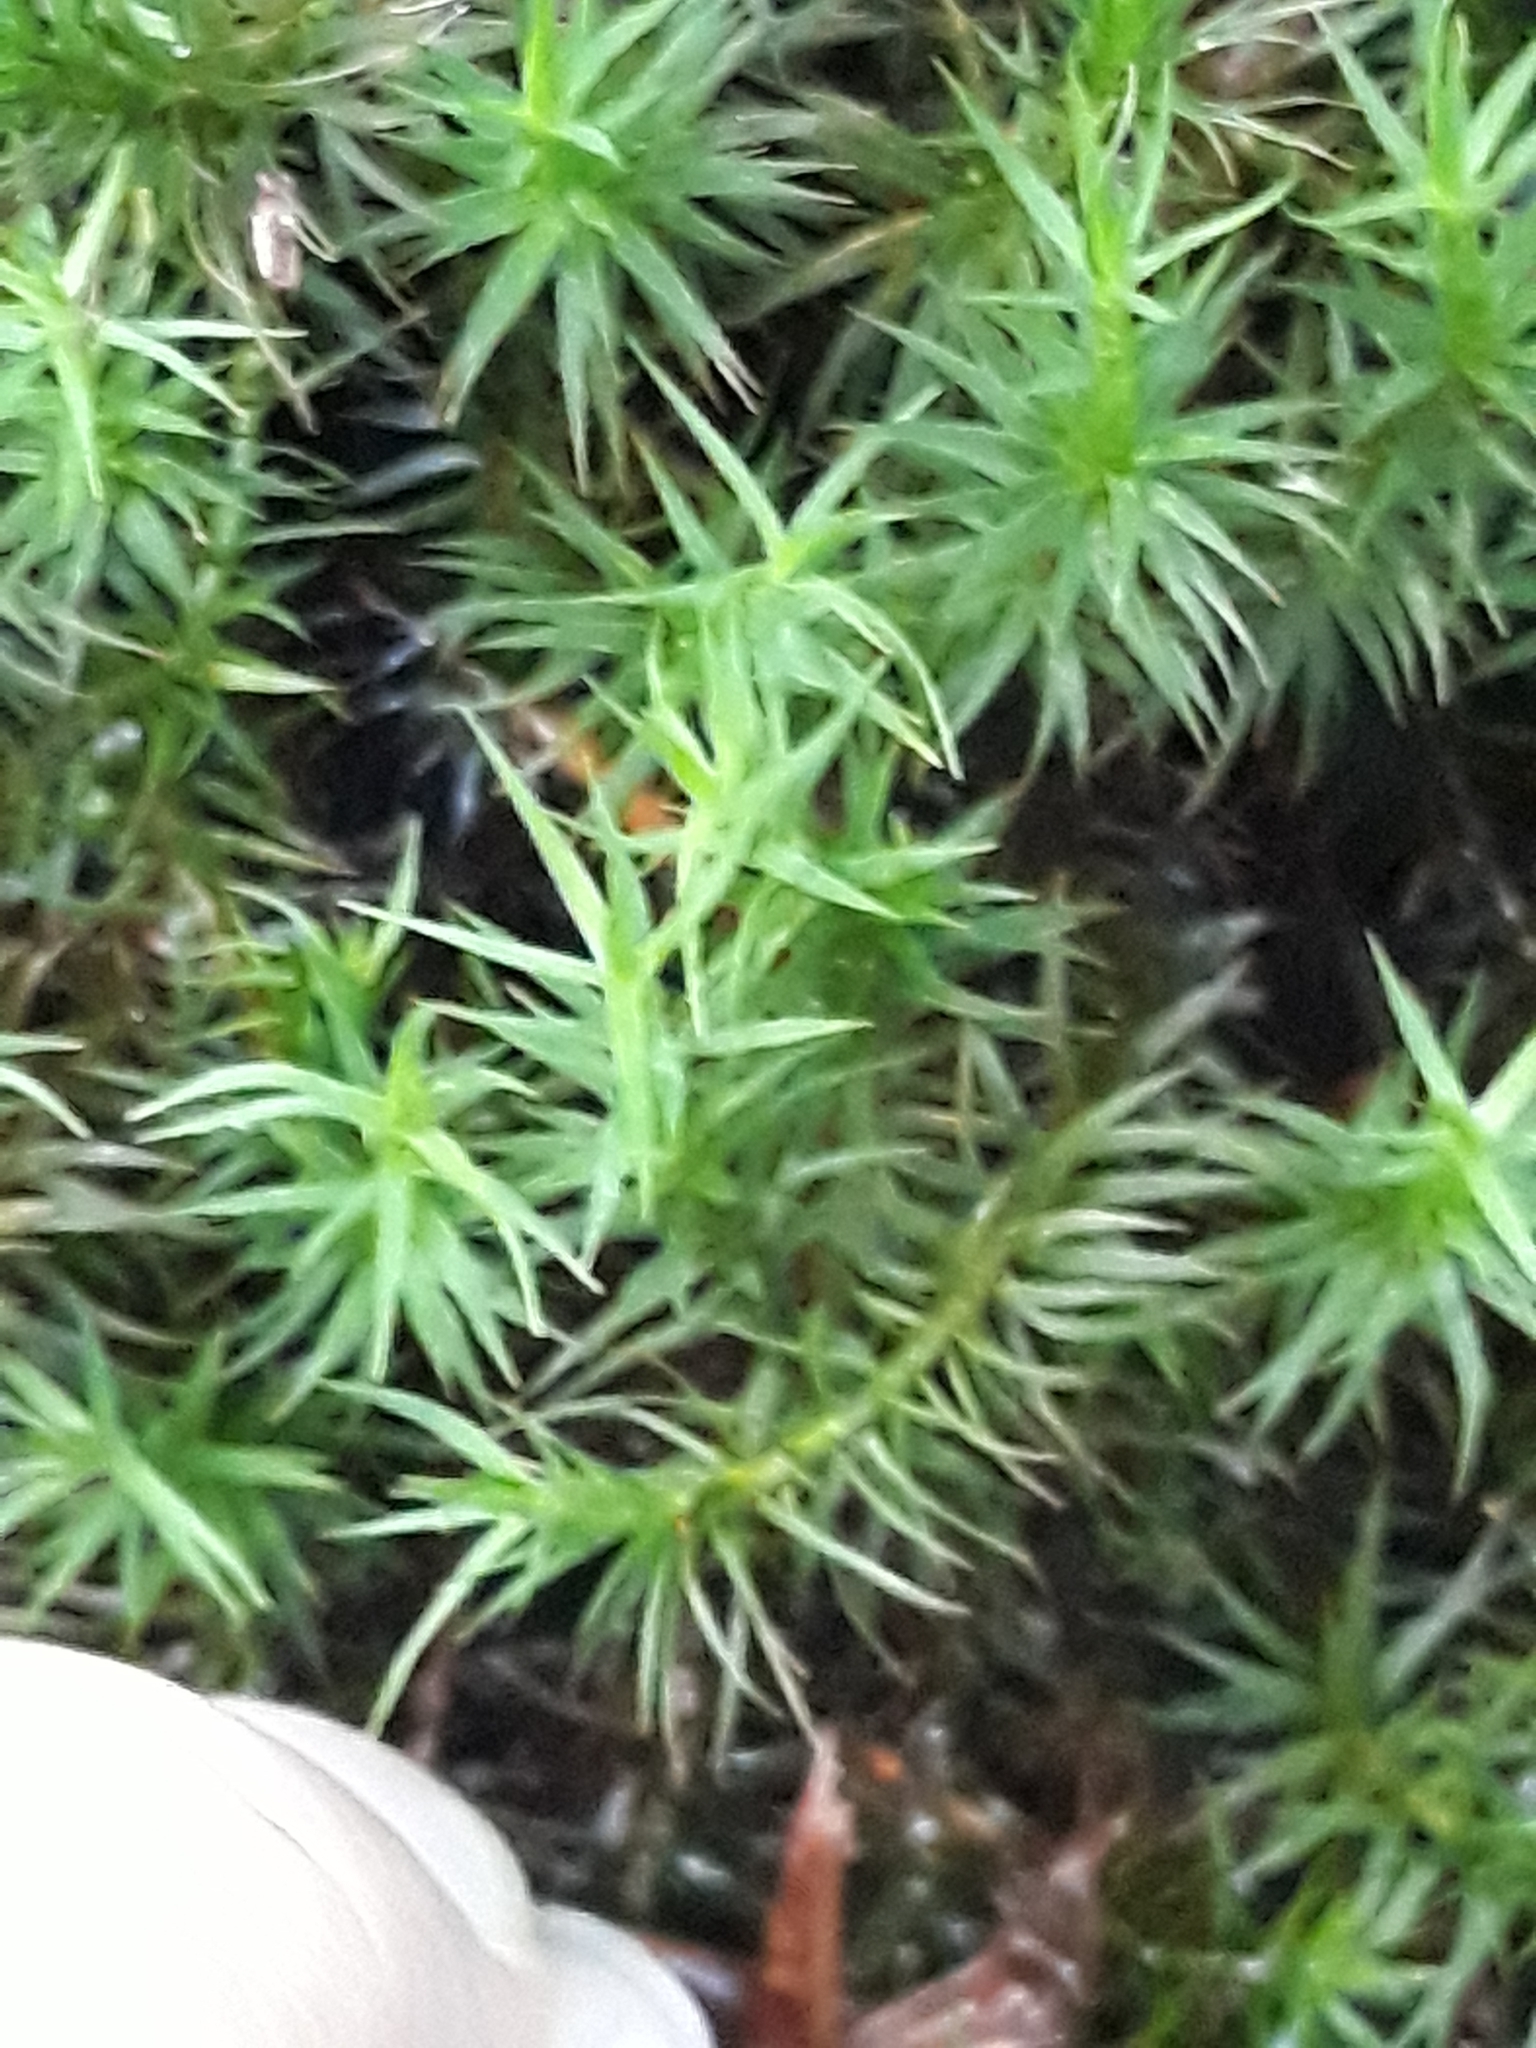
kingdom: Plantae
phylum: Bryophyta
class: Polytrichopsida
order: Polytrichales
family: Polytrichaceae
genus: Polytrichum
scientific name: Polytrichum formosum
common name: Bank haircap moss
